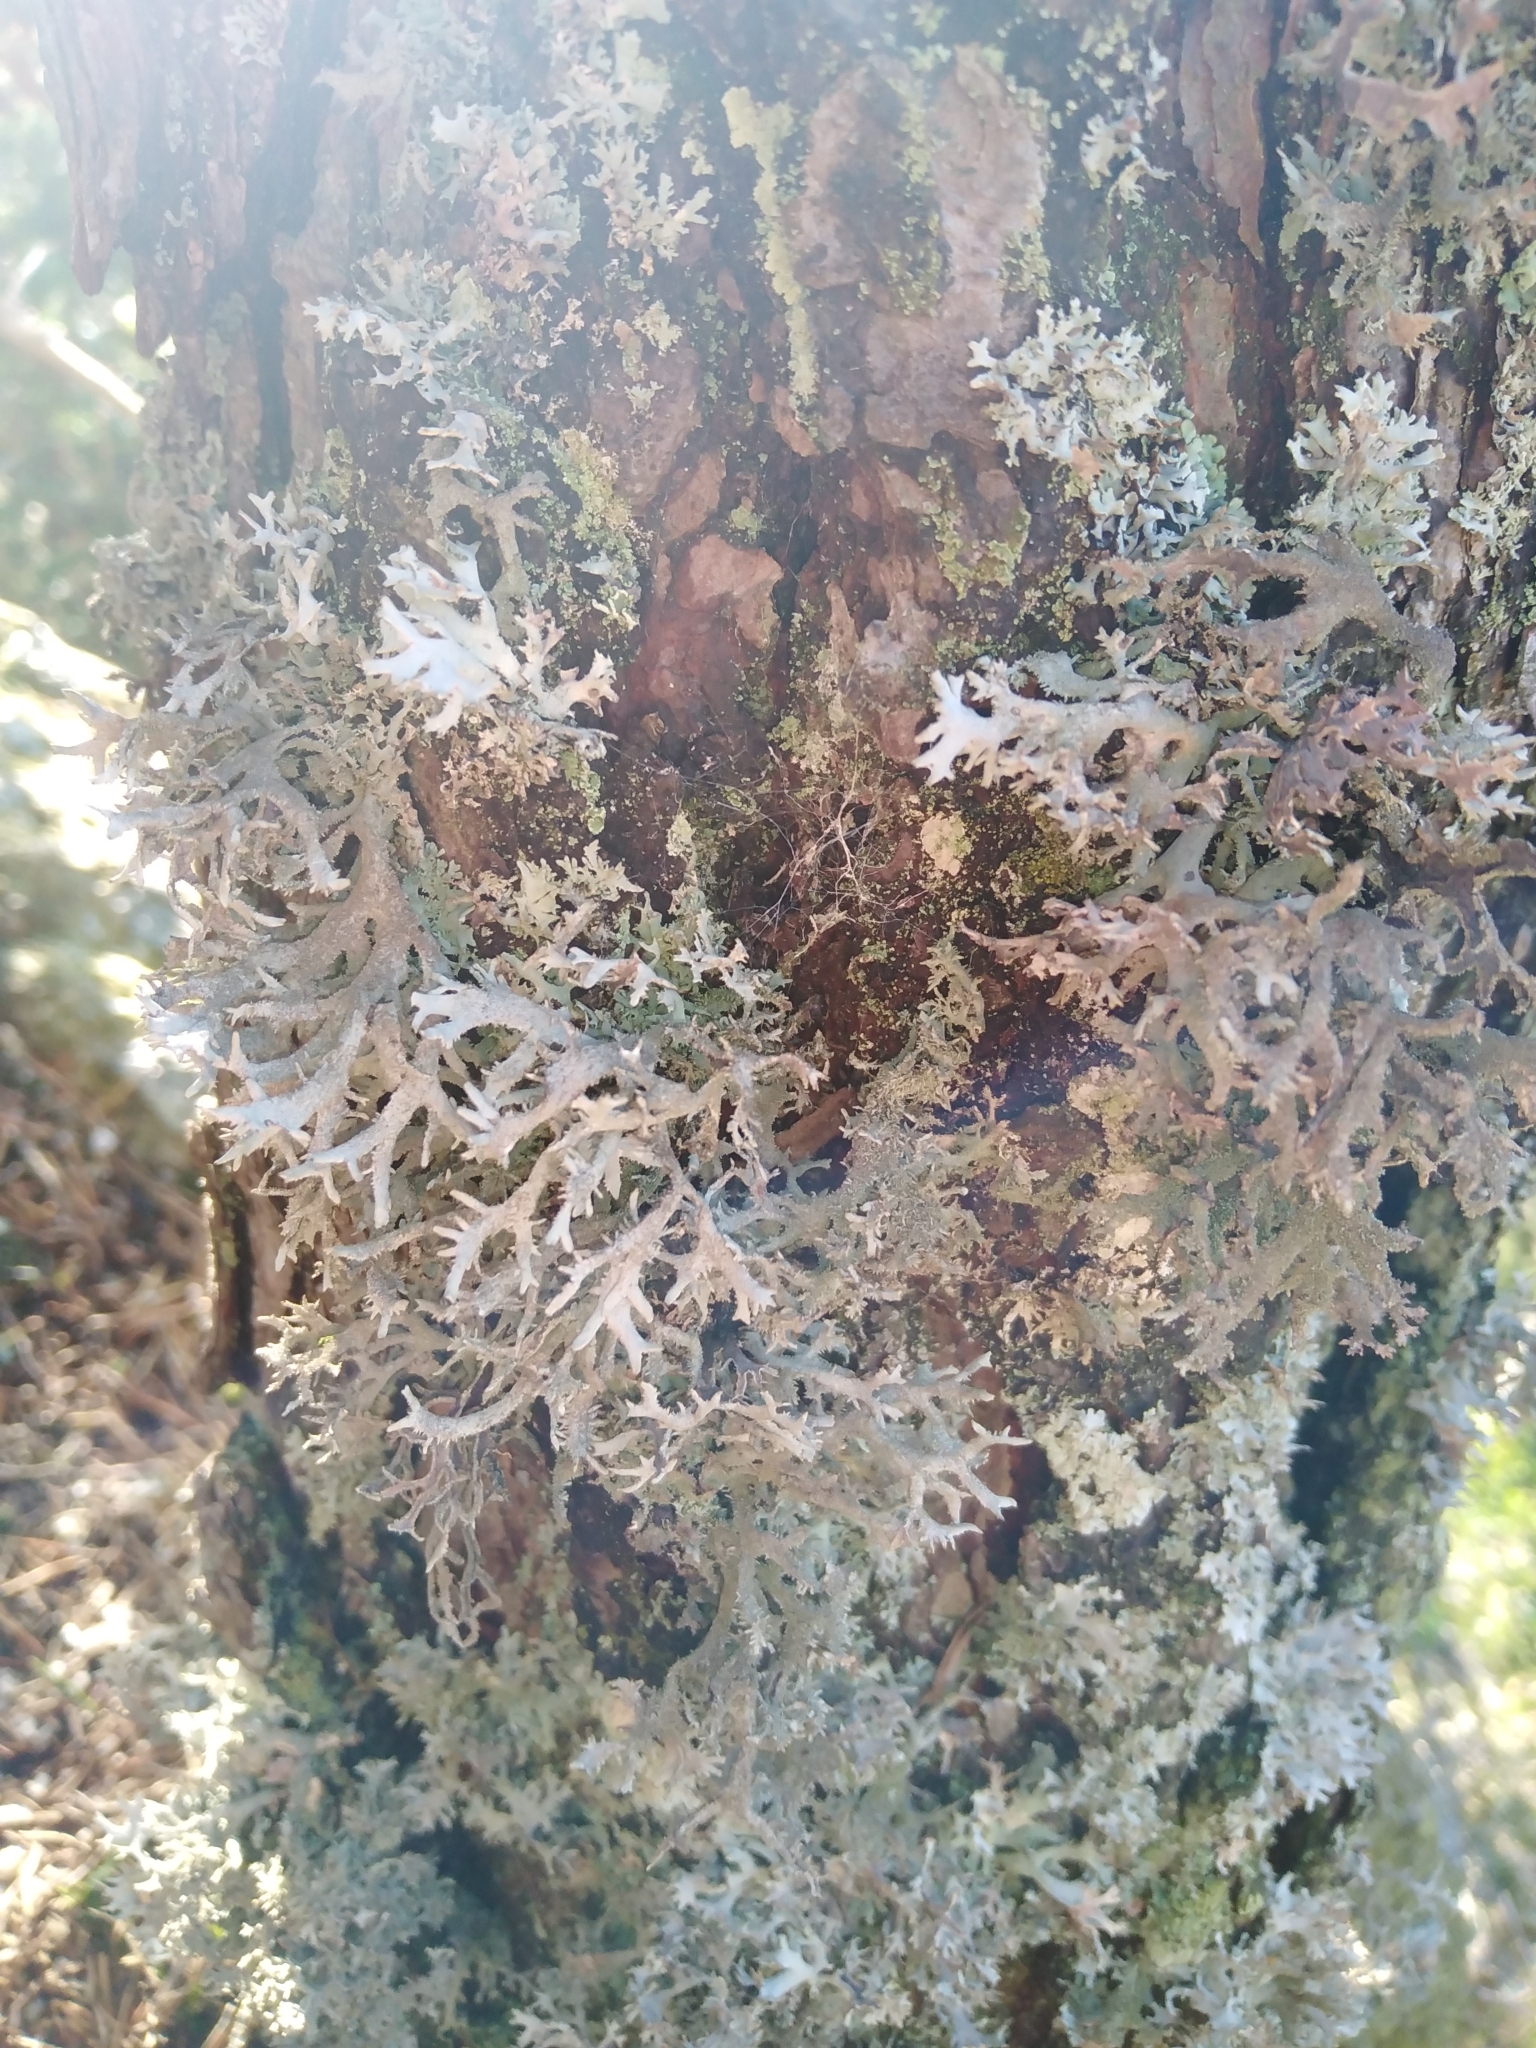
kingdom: Fungi
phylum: Ascomycota
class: Lecanoromycetes
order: Lecanorales
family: Parmeliaceae
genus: Pseudevernia
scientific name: Pseudevernia furfuracea
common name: Tree moss
